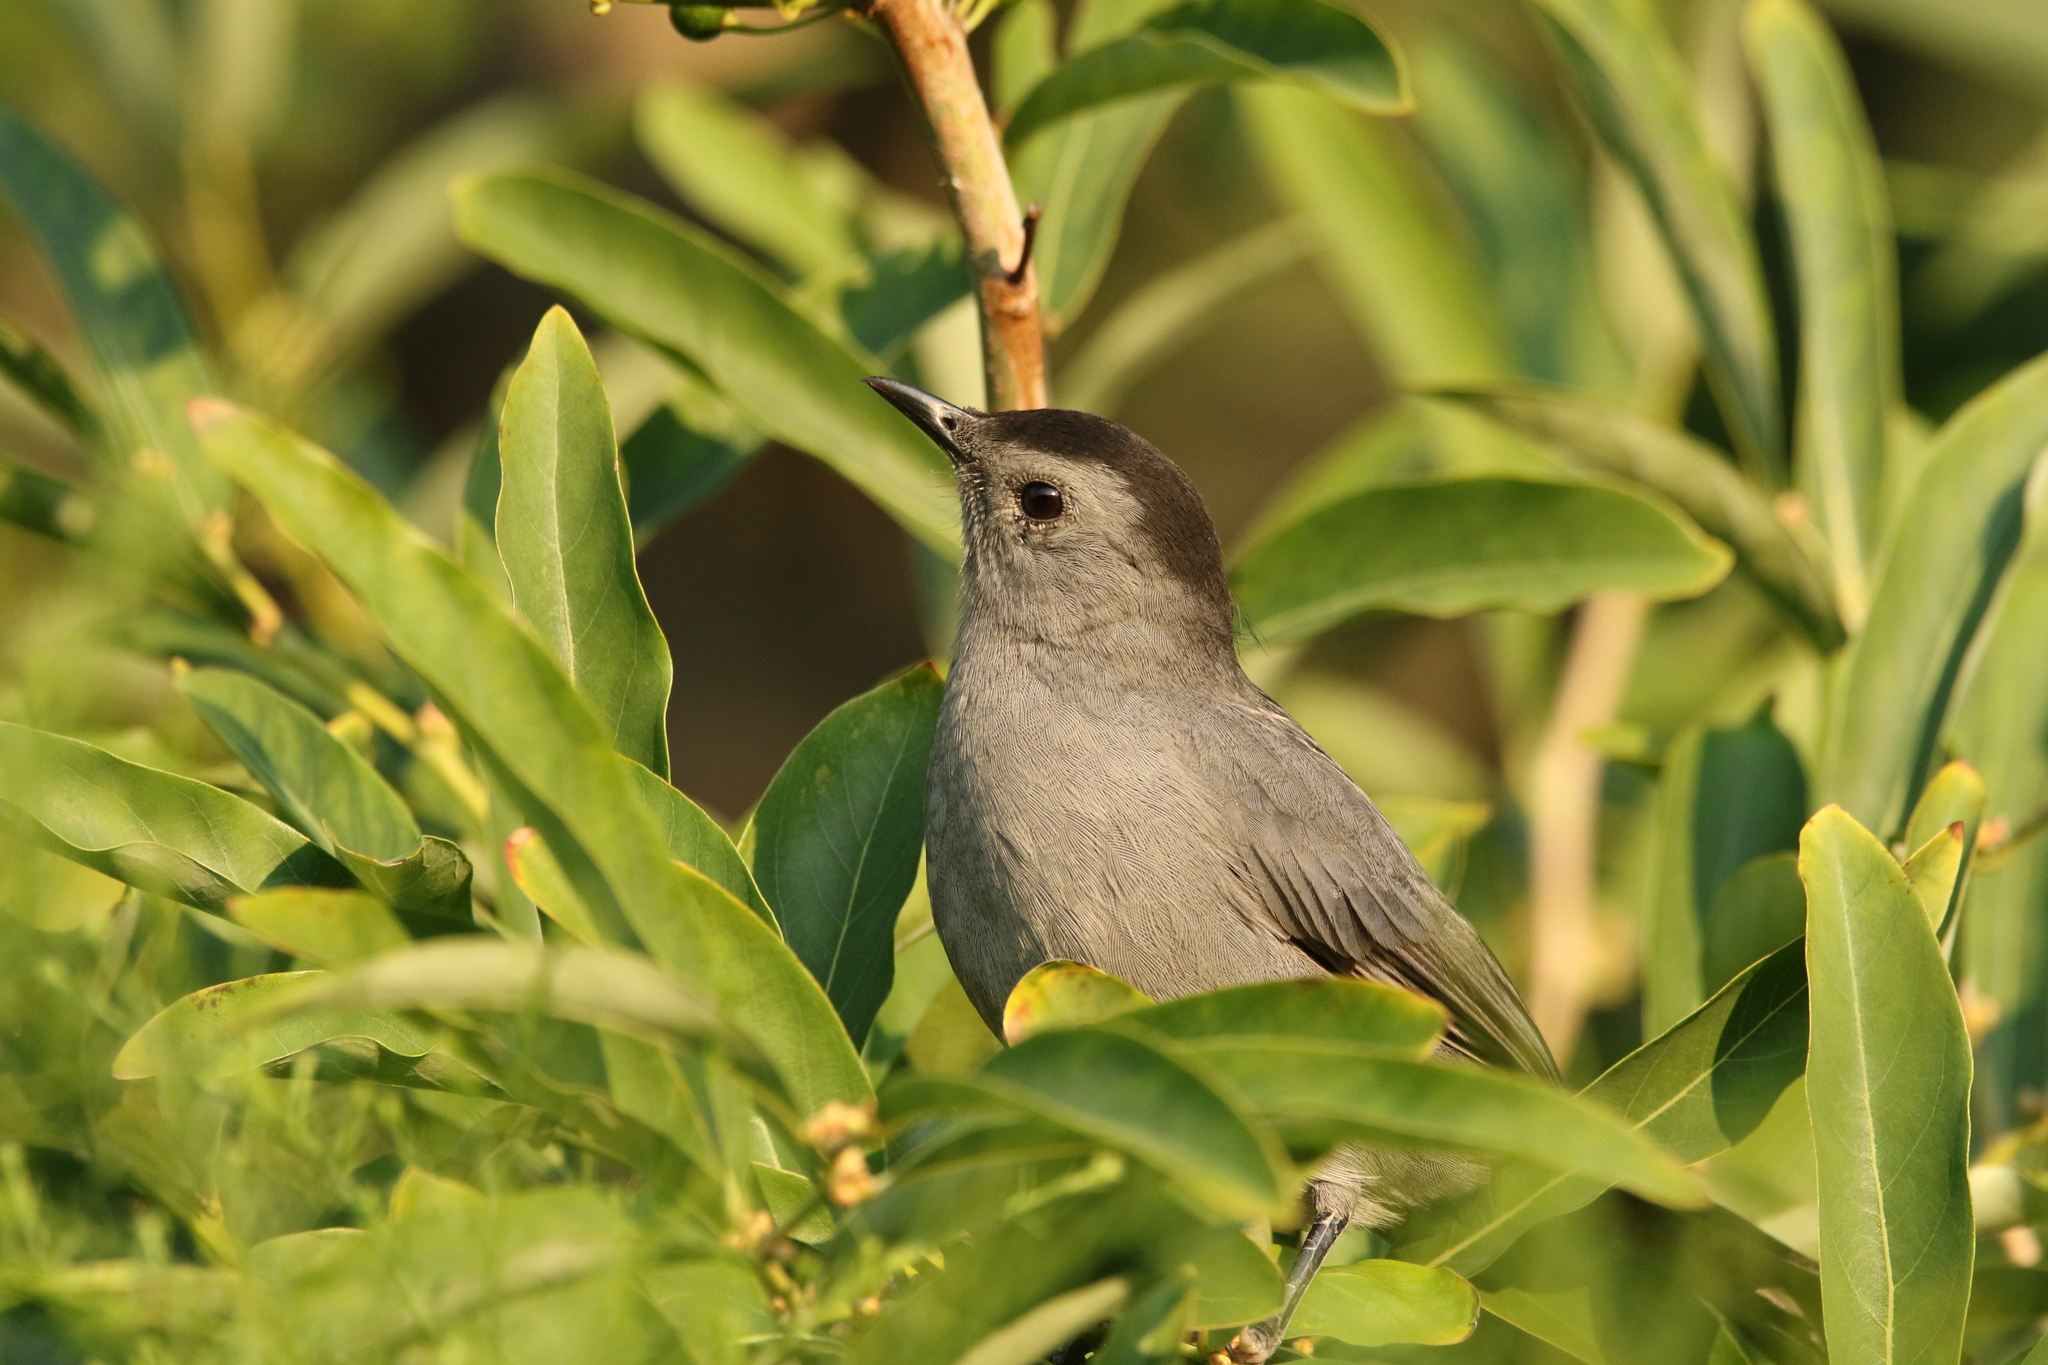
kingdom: Animalia
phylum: Chordata
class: Aves
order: Passeriformes
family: Mimidae
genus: Dumetella
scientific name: Dumetella carolinensis
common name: Gray catbird
